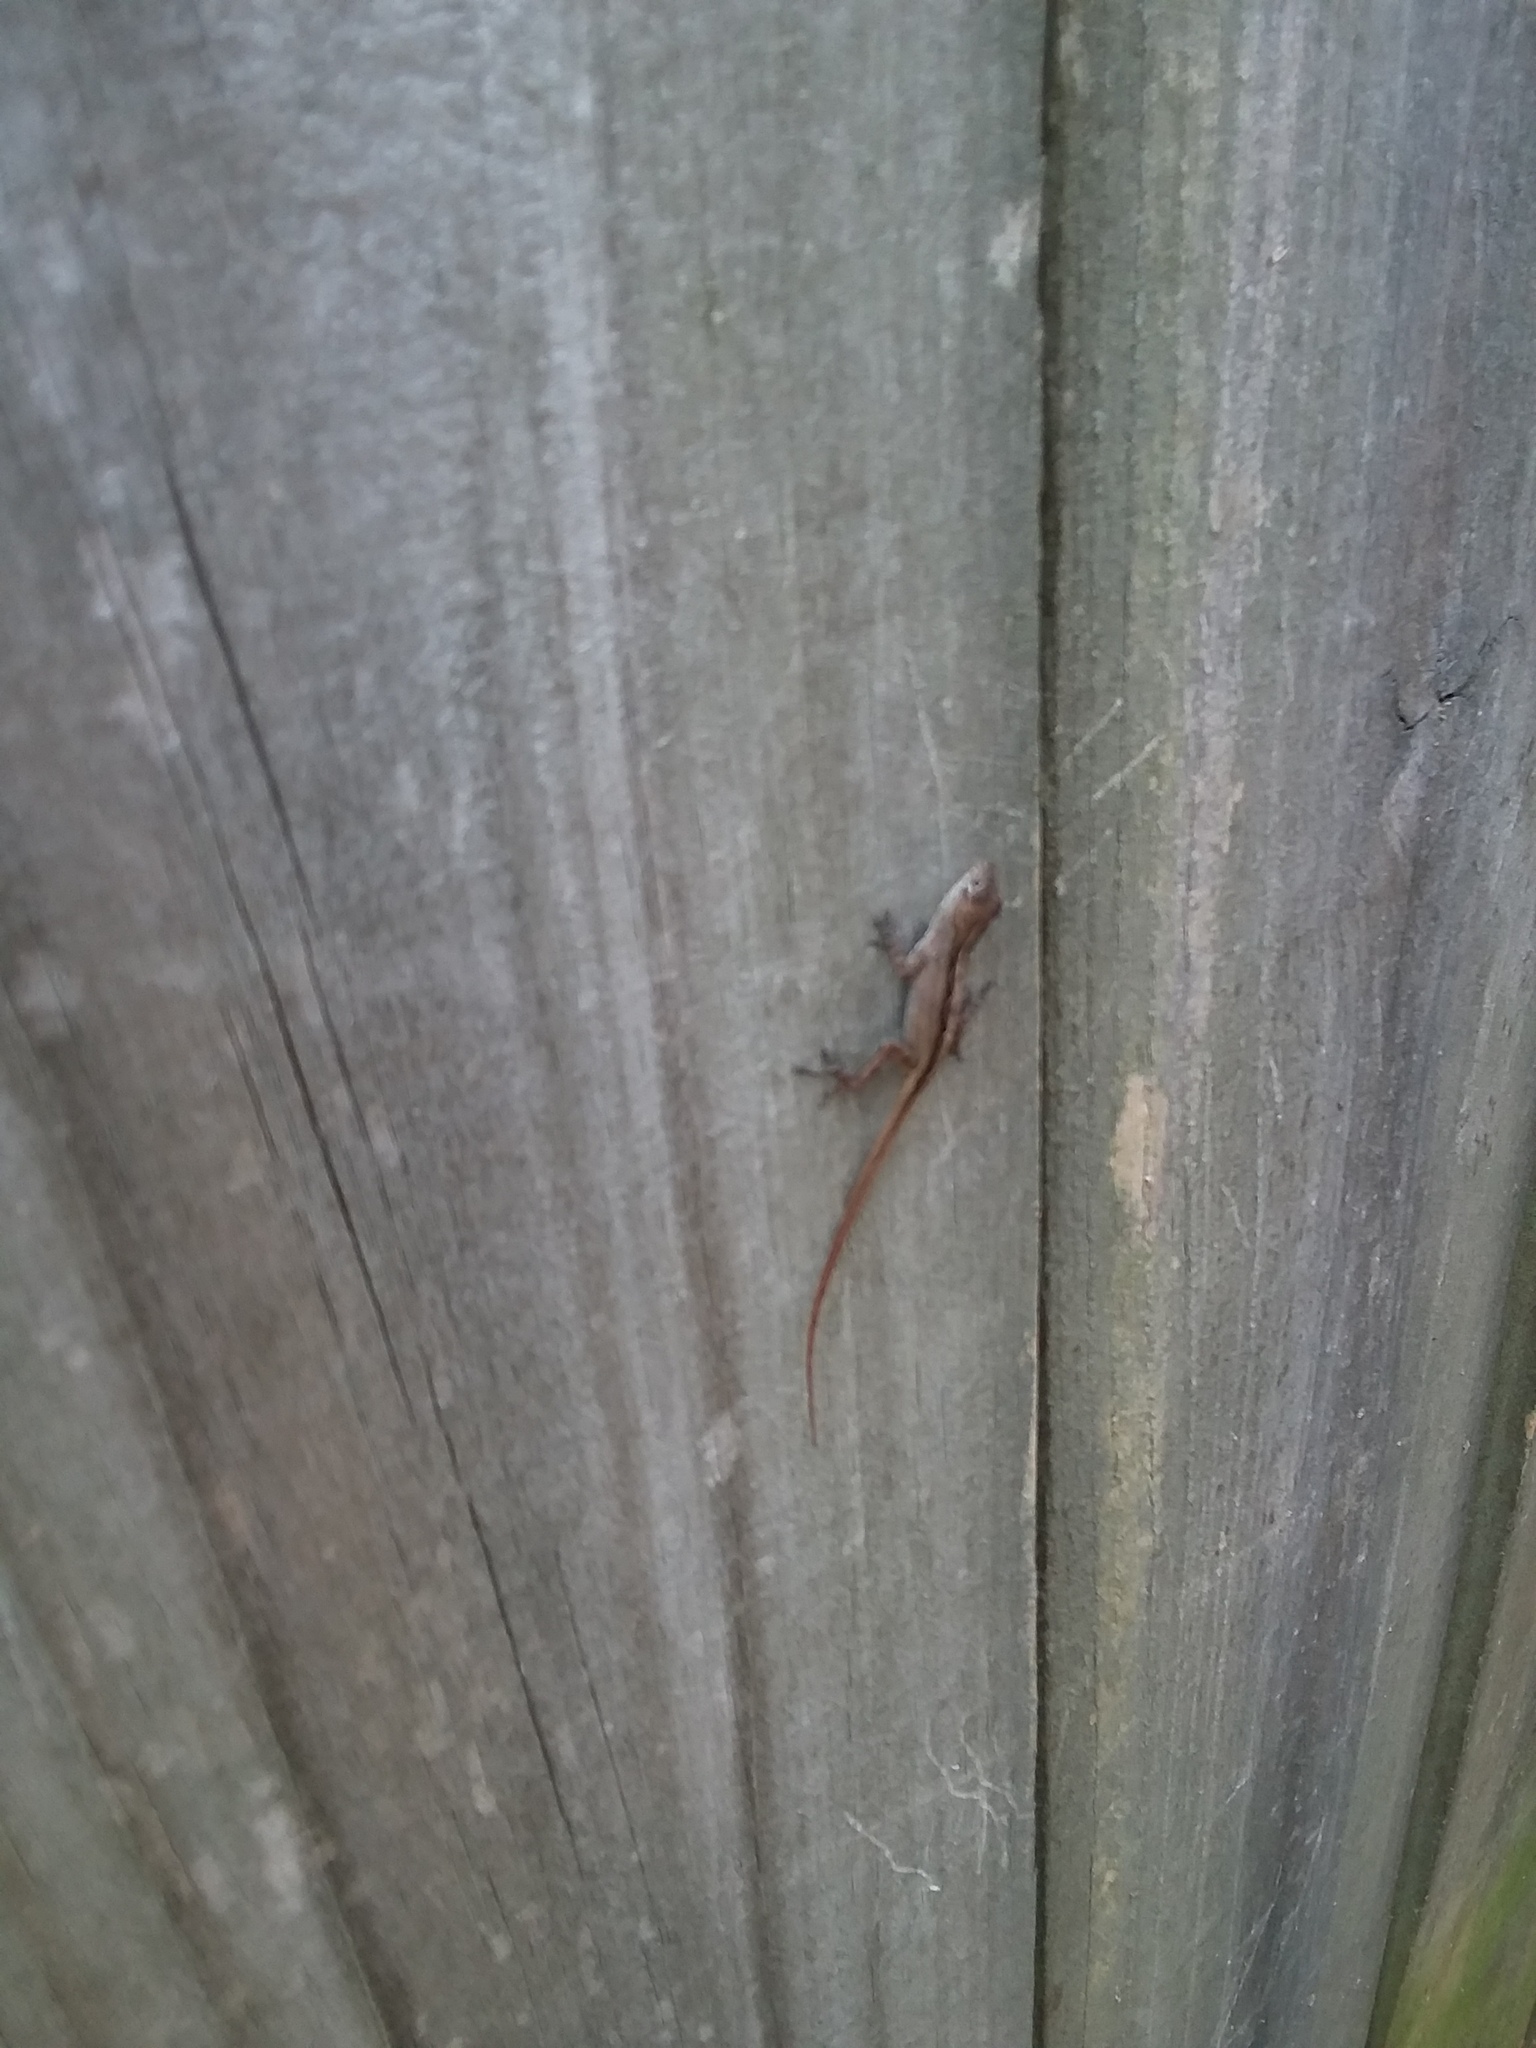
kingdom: Animalia
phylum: Chordata
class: Squamata
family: Dactyloidae
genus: Anolis
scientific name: Anolis sagrei
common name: Brown anole
